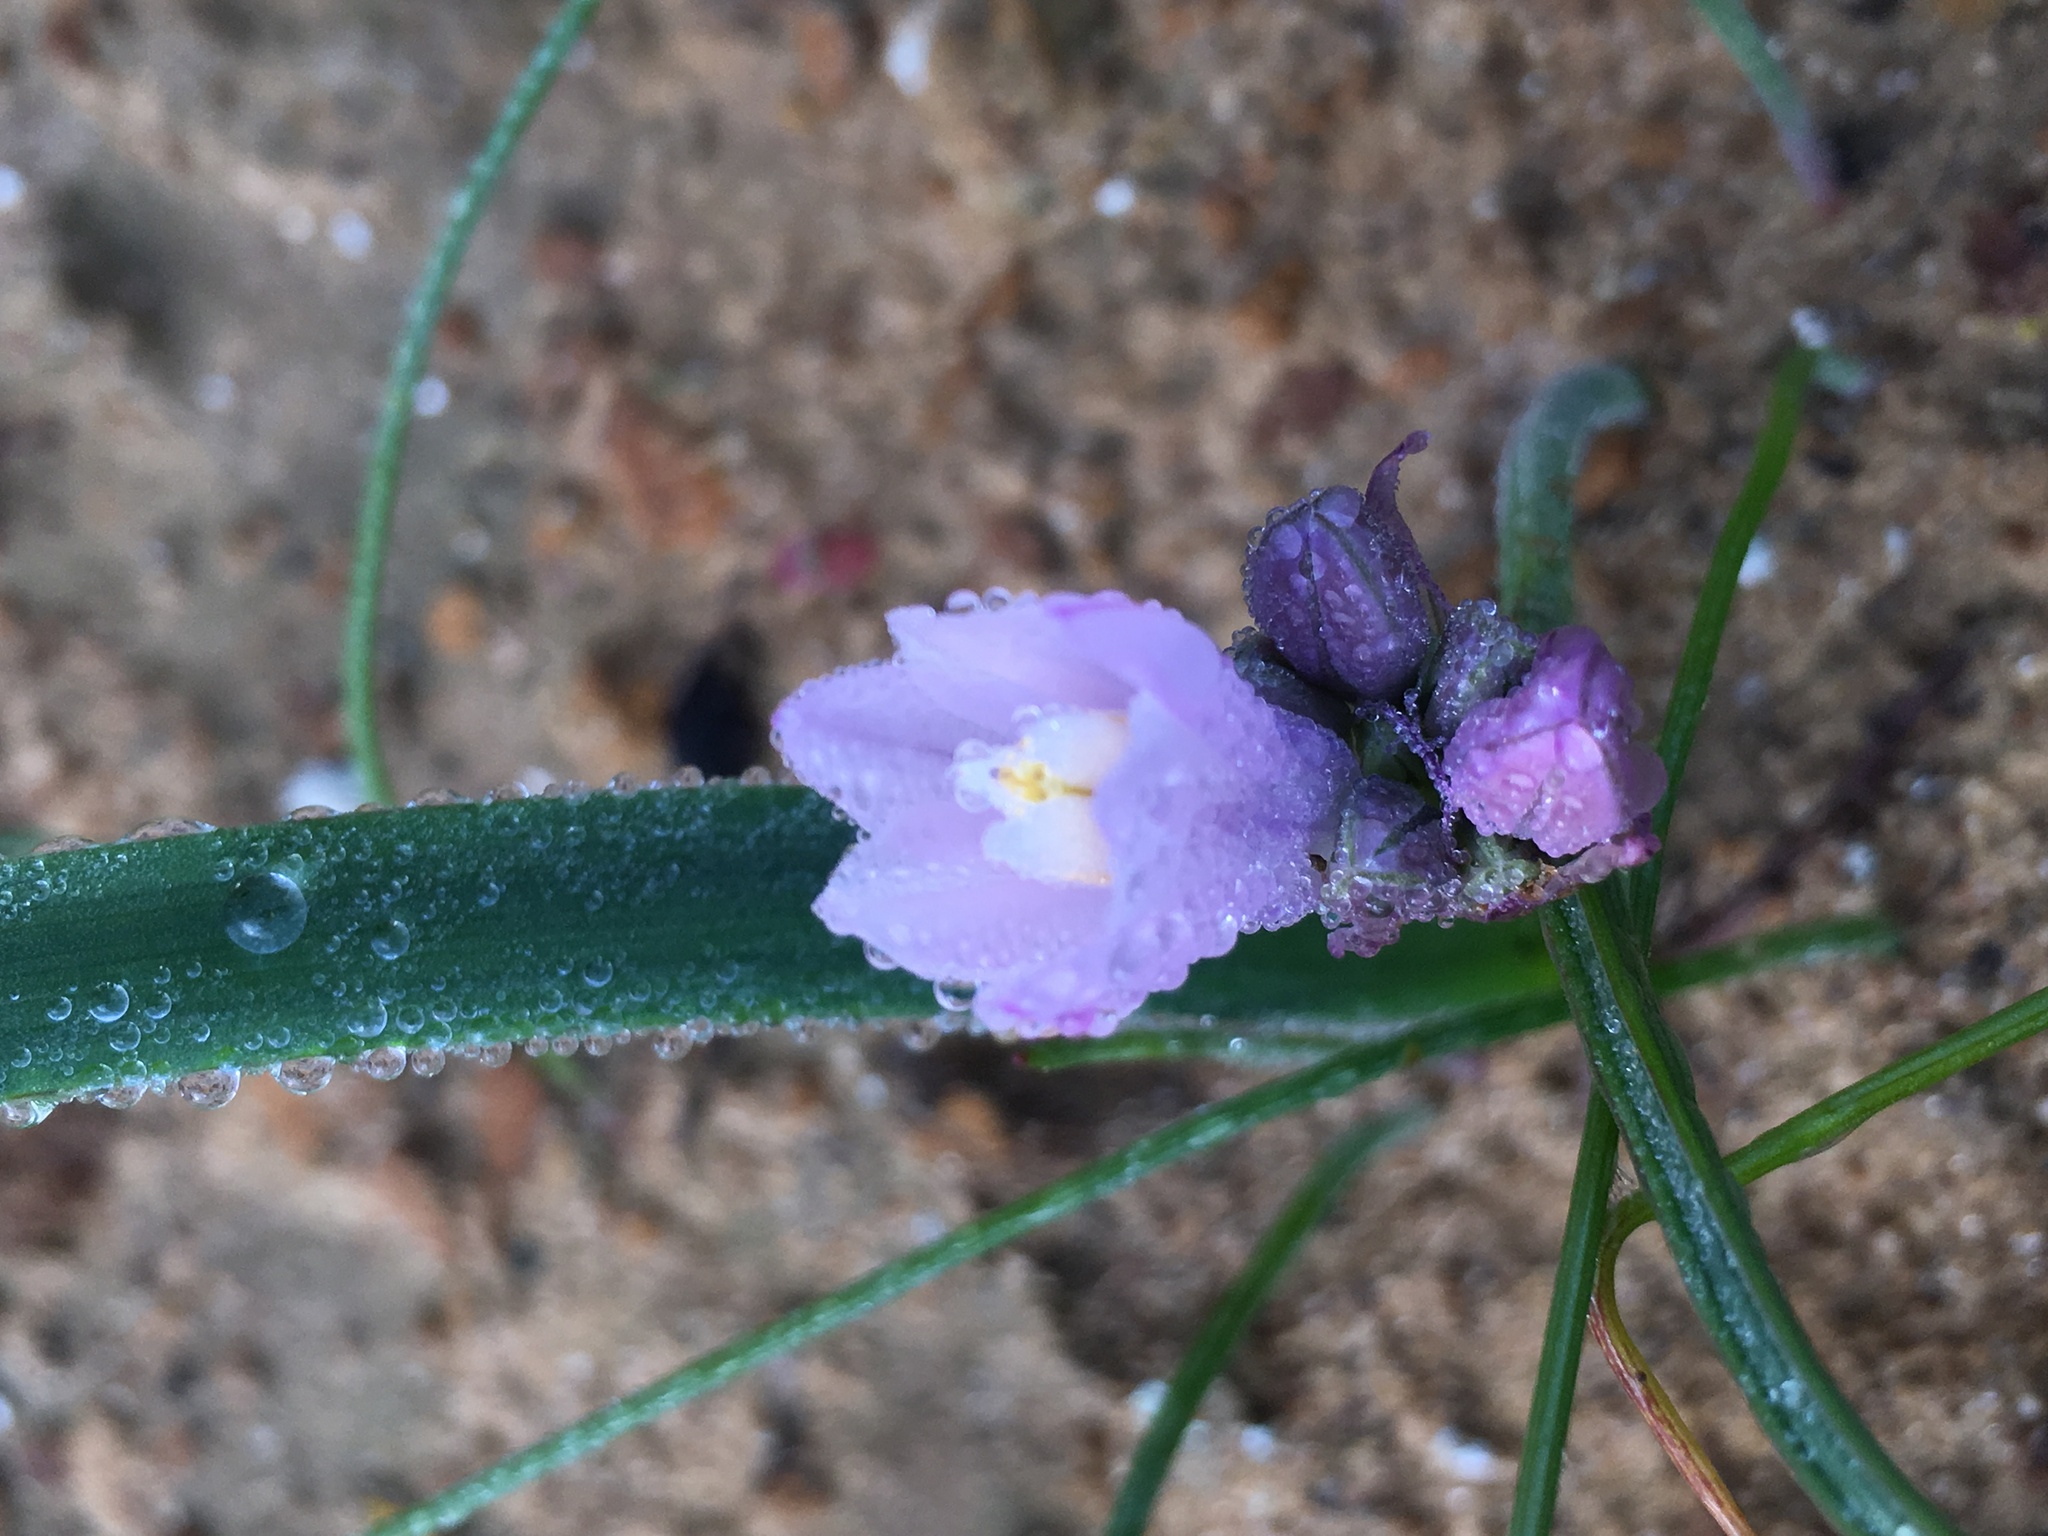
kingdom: Plantae
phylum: Tracheophyta
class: Liliopsida
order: Asparagales
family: Asparagaceae
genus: Dipterostemon
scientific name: Dipterostemon capitatus
